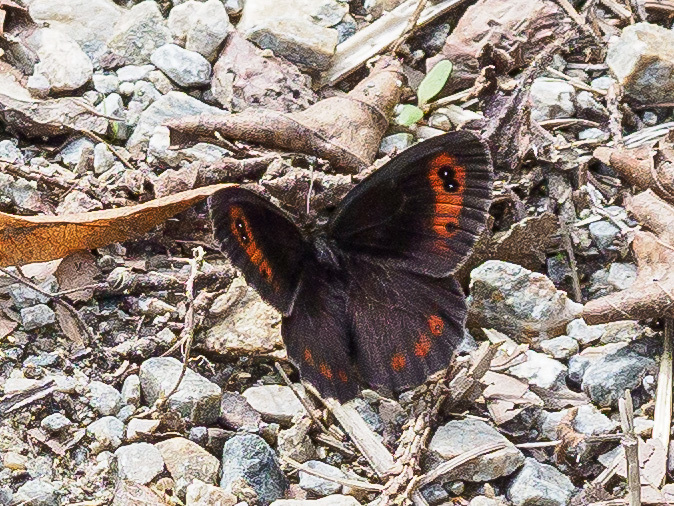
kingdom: Animalia
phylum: Arthropoda
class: Insecta
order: Lepidoptera
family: Nymphalidae
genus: Erebia
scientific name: Erebia aethiops
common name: Scotch argus
